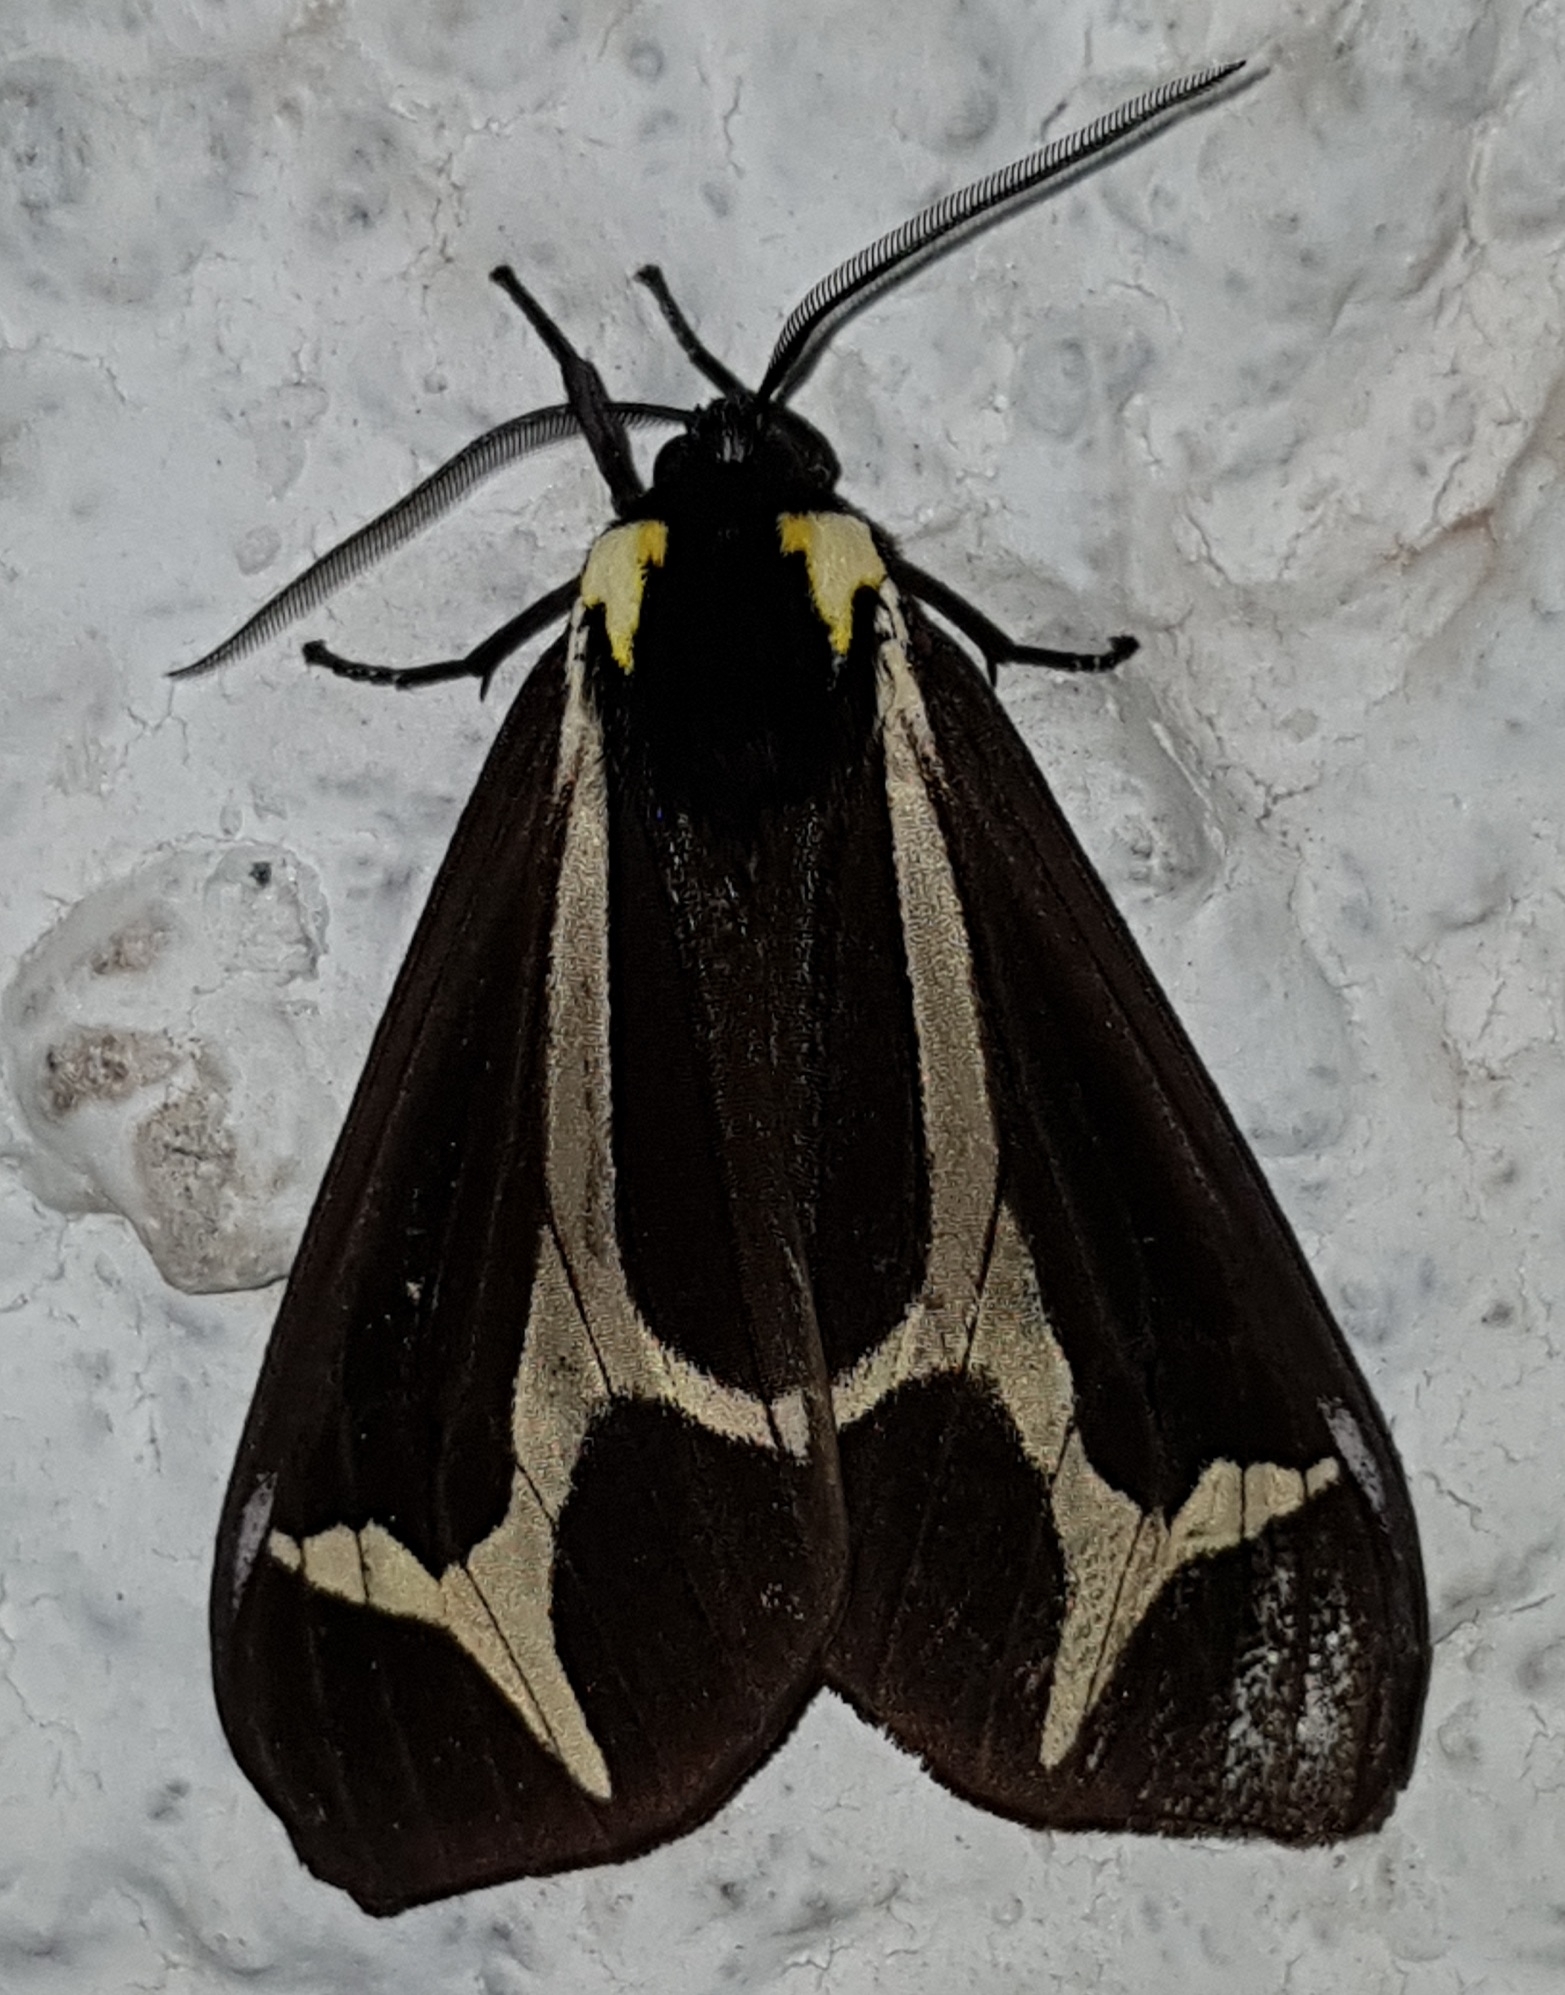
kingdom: Animalia
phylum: Arthropoda
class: Insecta
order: Lepidoptera
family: Erebidae
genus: Dysschema
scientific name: Dysschema howardi
